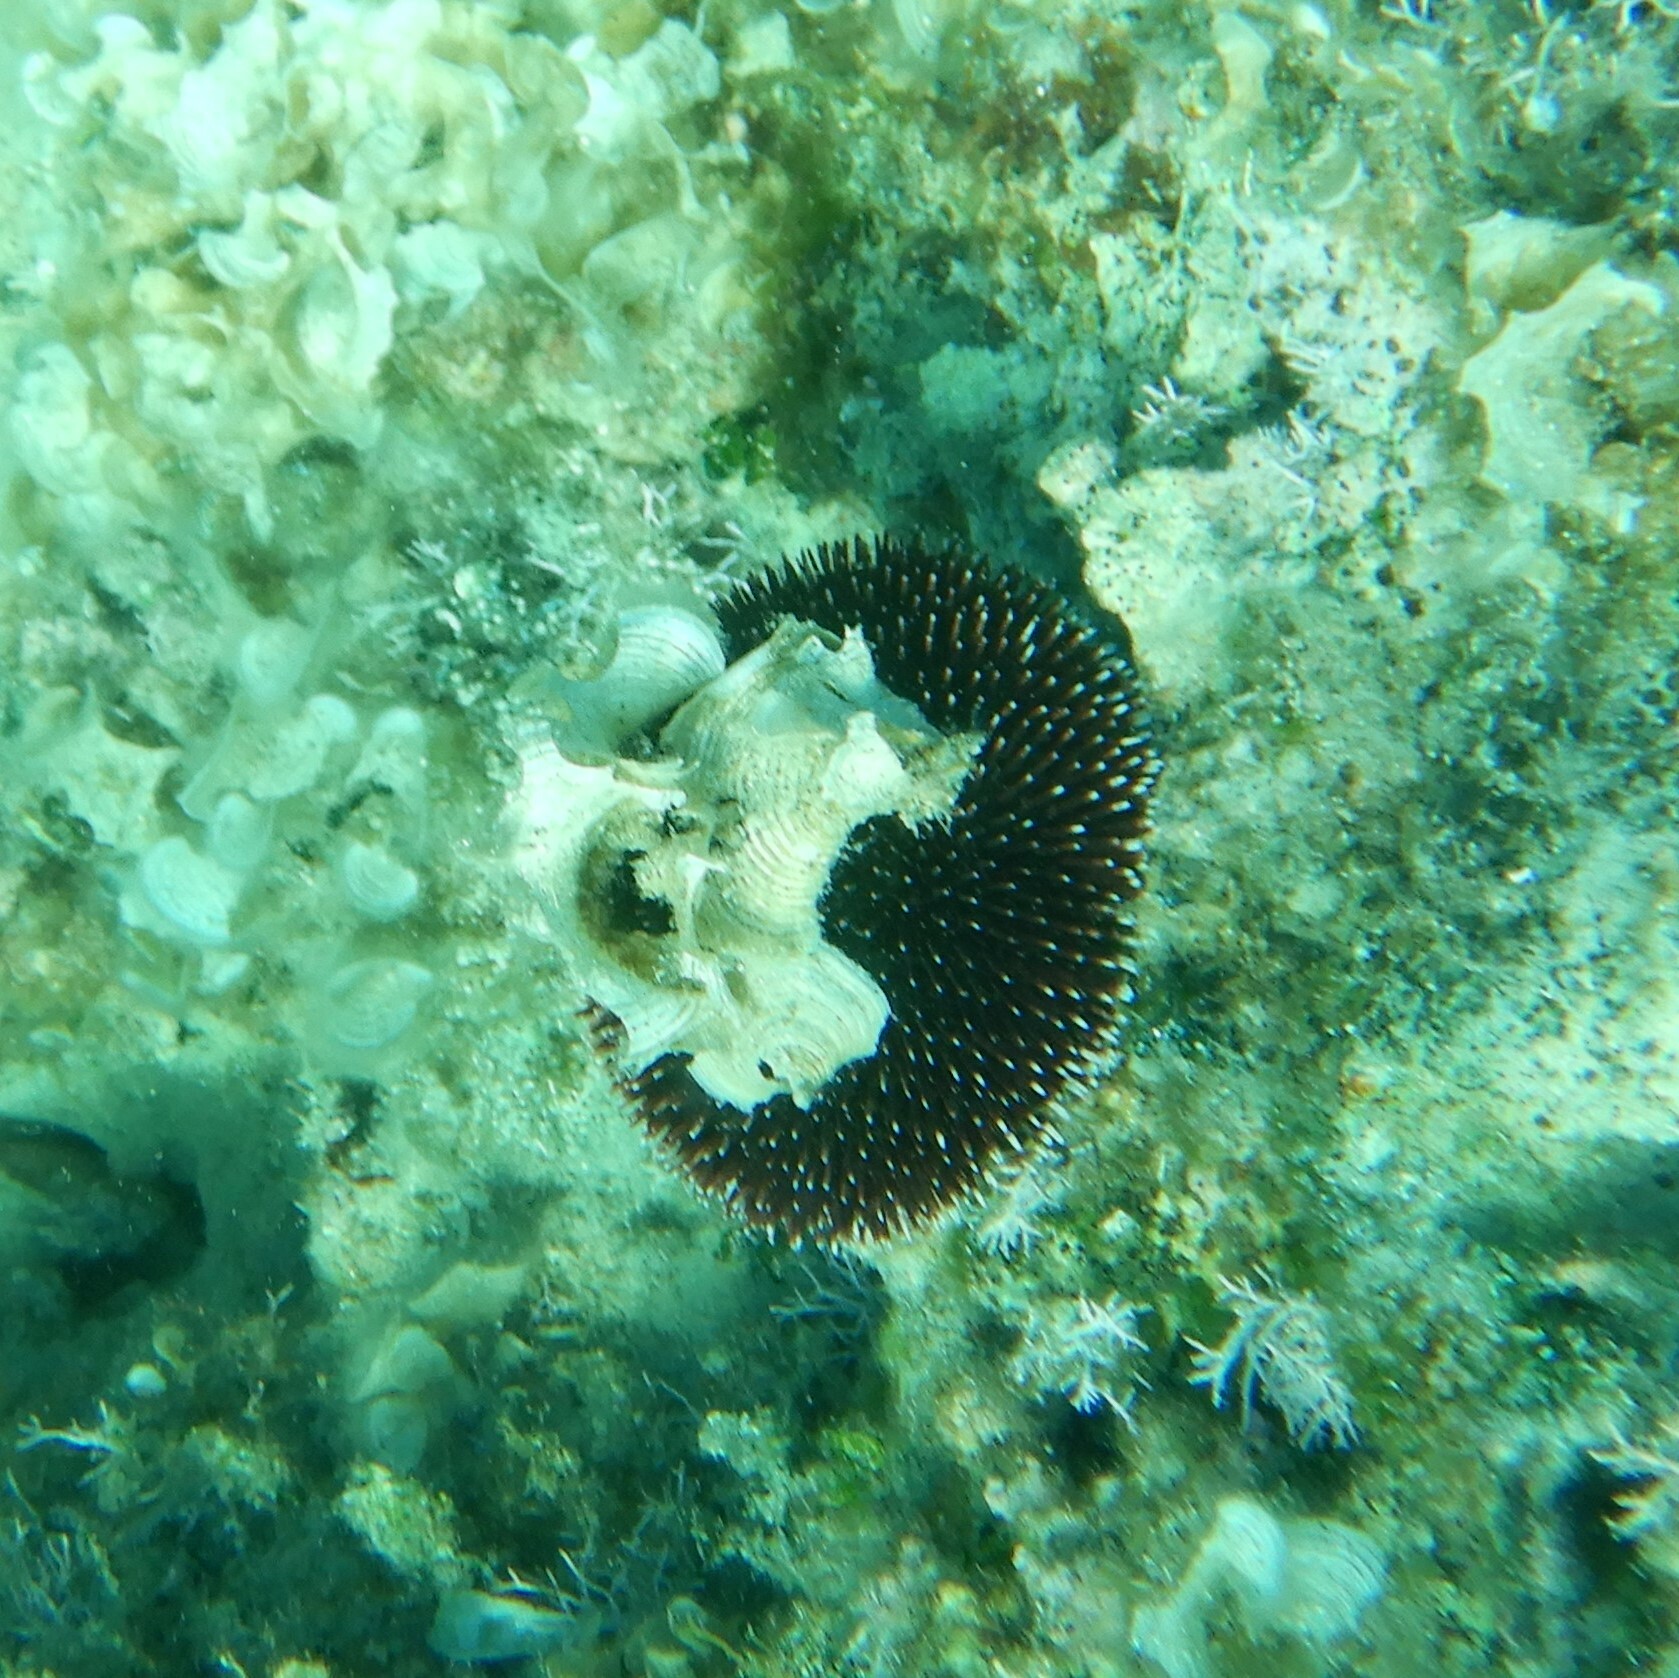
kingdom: Animalia
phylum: Echinodermata
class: Echinoidea
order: Camarodonta
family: Toxopneustidae
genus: Sphaerechinus
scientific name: Sphaerechinus granularis
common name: Violet sea urchin
